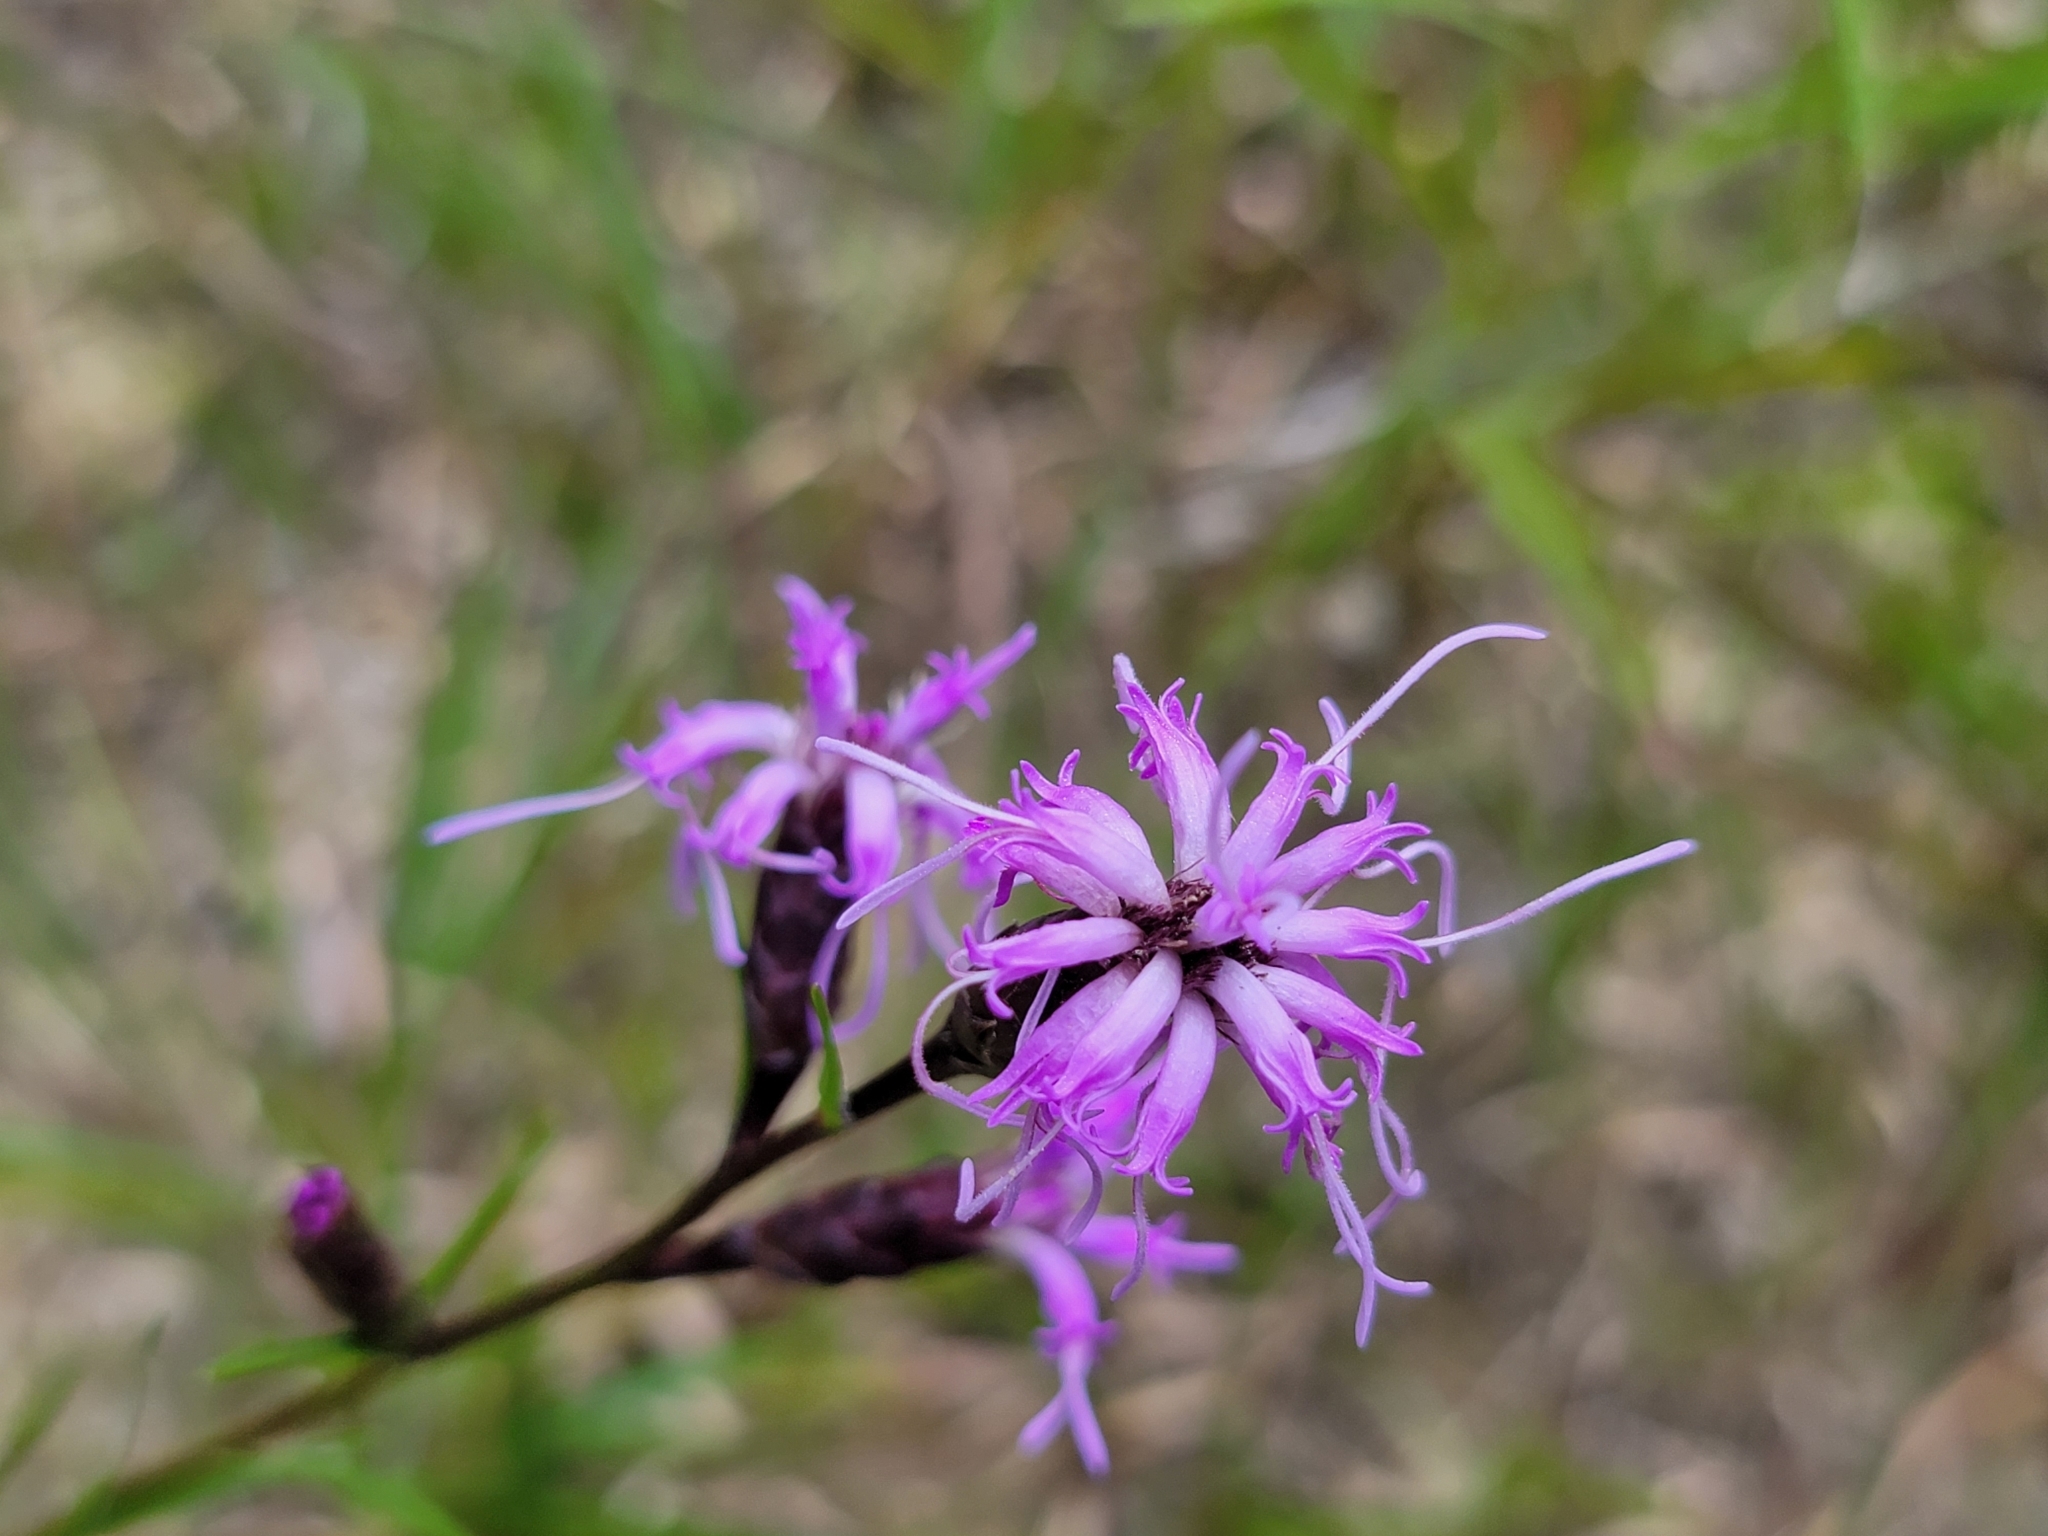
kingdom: Plantae
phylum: Tracheophyta
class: Magnoliopsida
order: Asterales
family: Asteraceae
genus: Liatris
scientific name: Liatris cylindracea
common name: Few-head blazingstar
